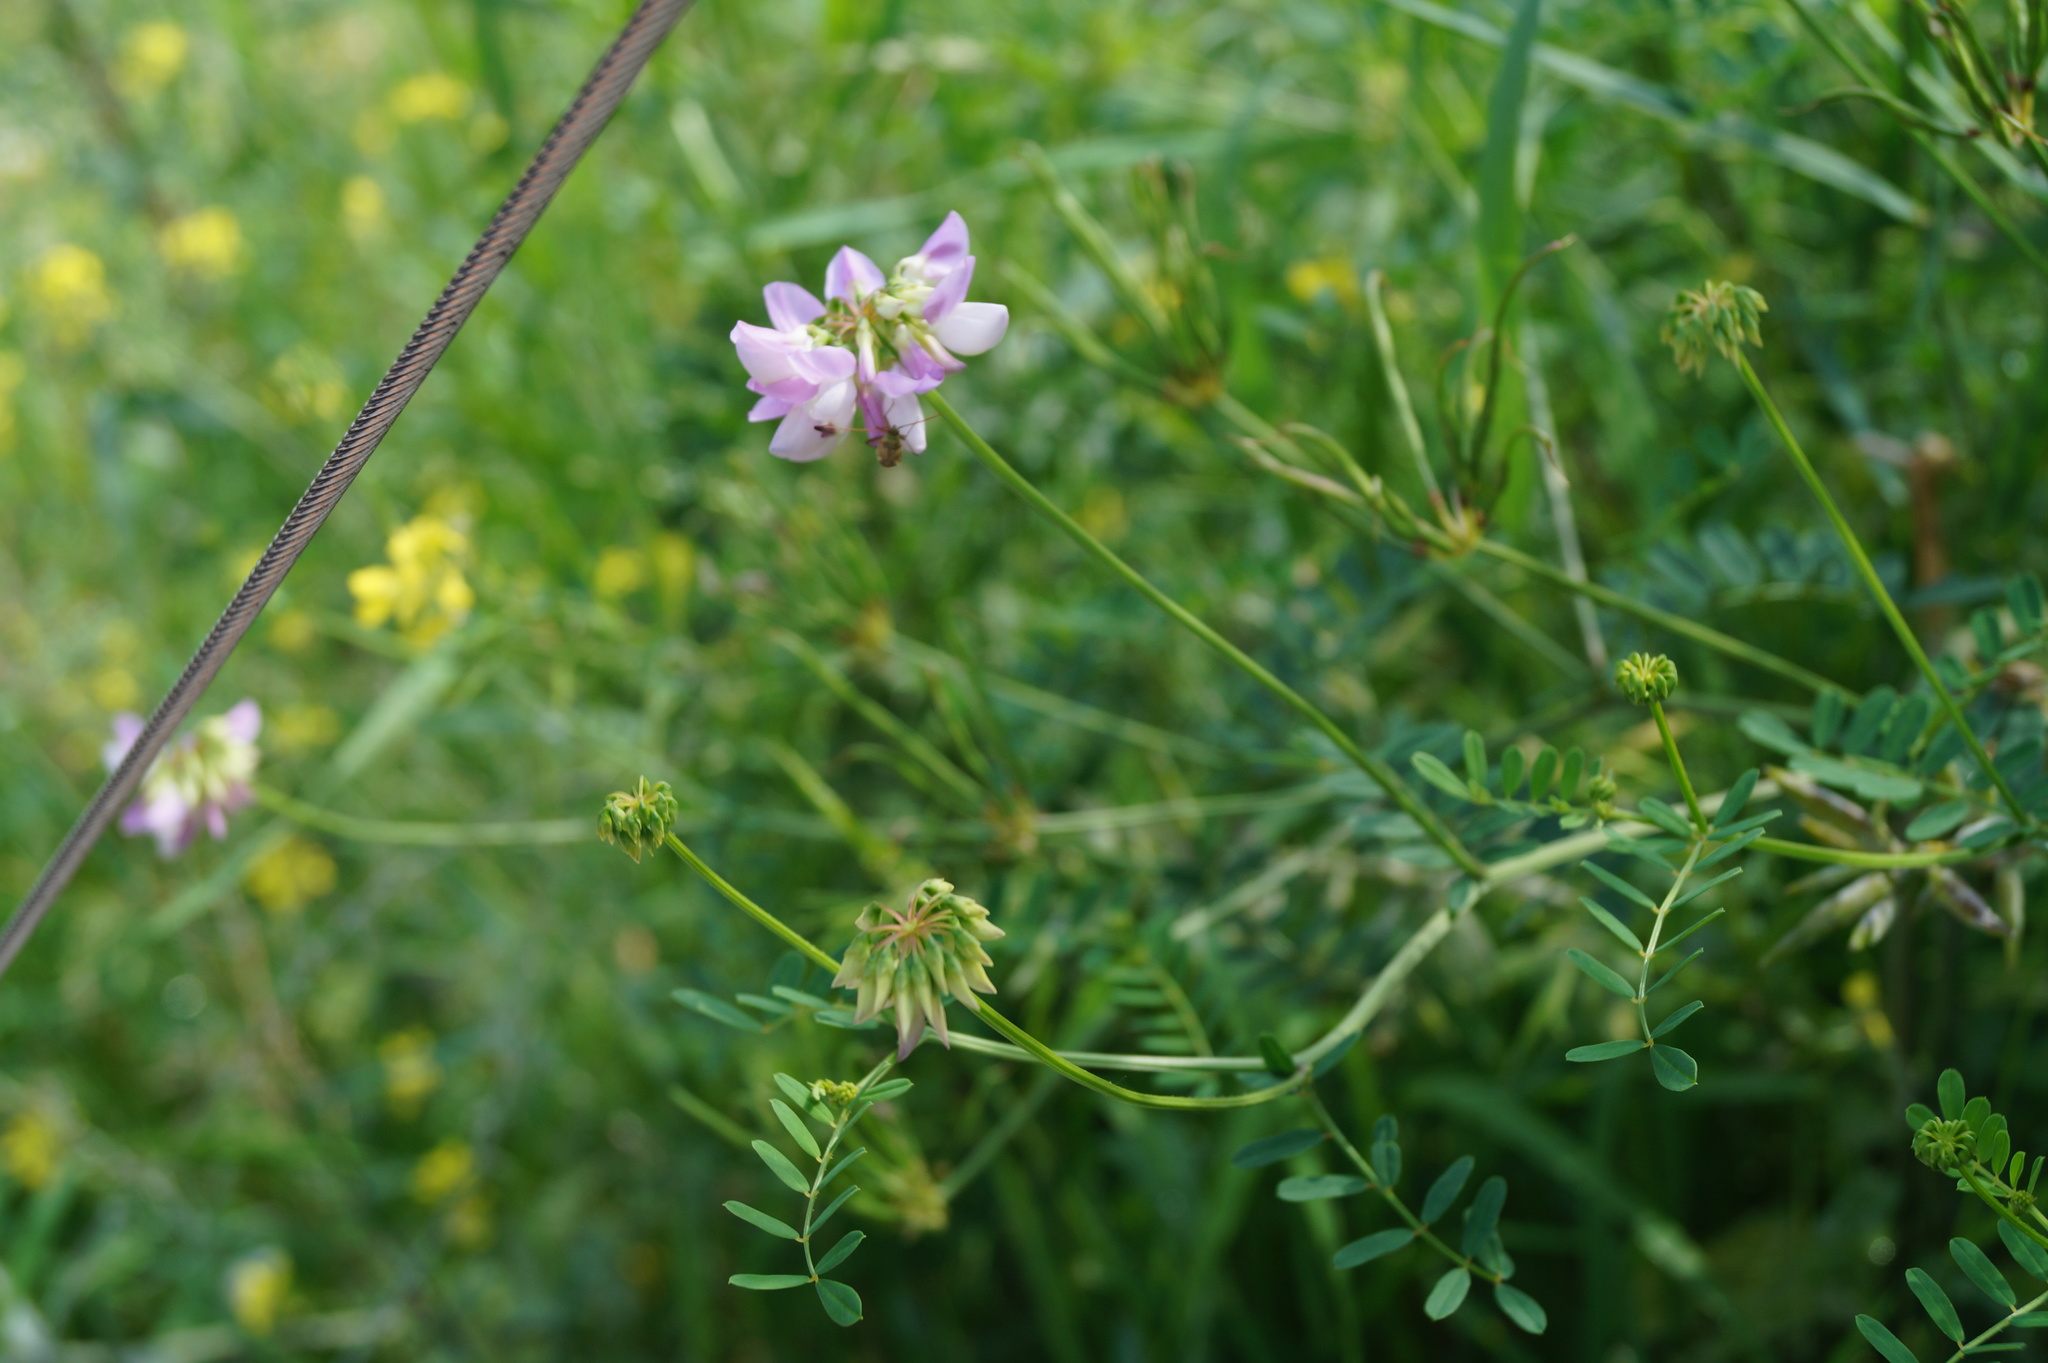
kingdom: Plantae
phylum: Tracheophyta
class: Magnoliopsida
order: Fabales
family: Fabaceae
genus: Coronilla
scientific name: Coronilla varia
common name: Crownvetch
